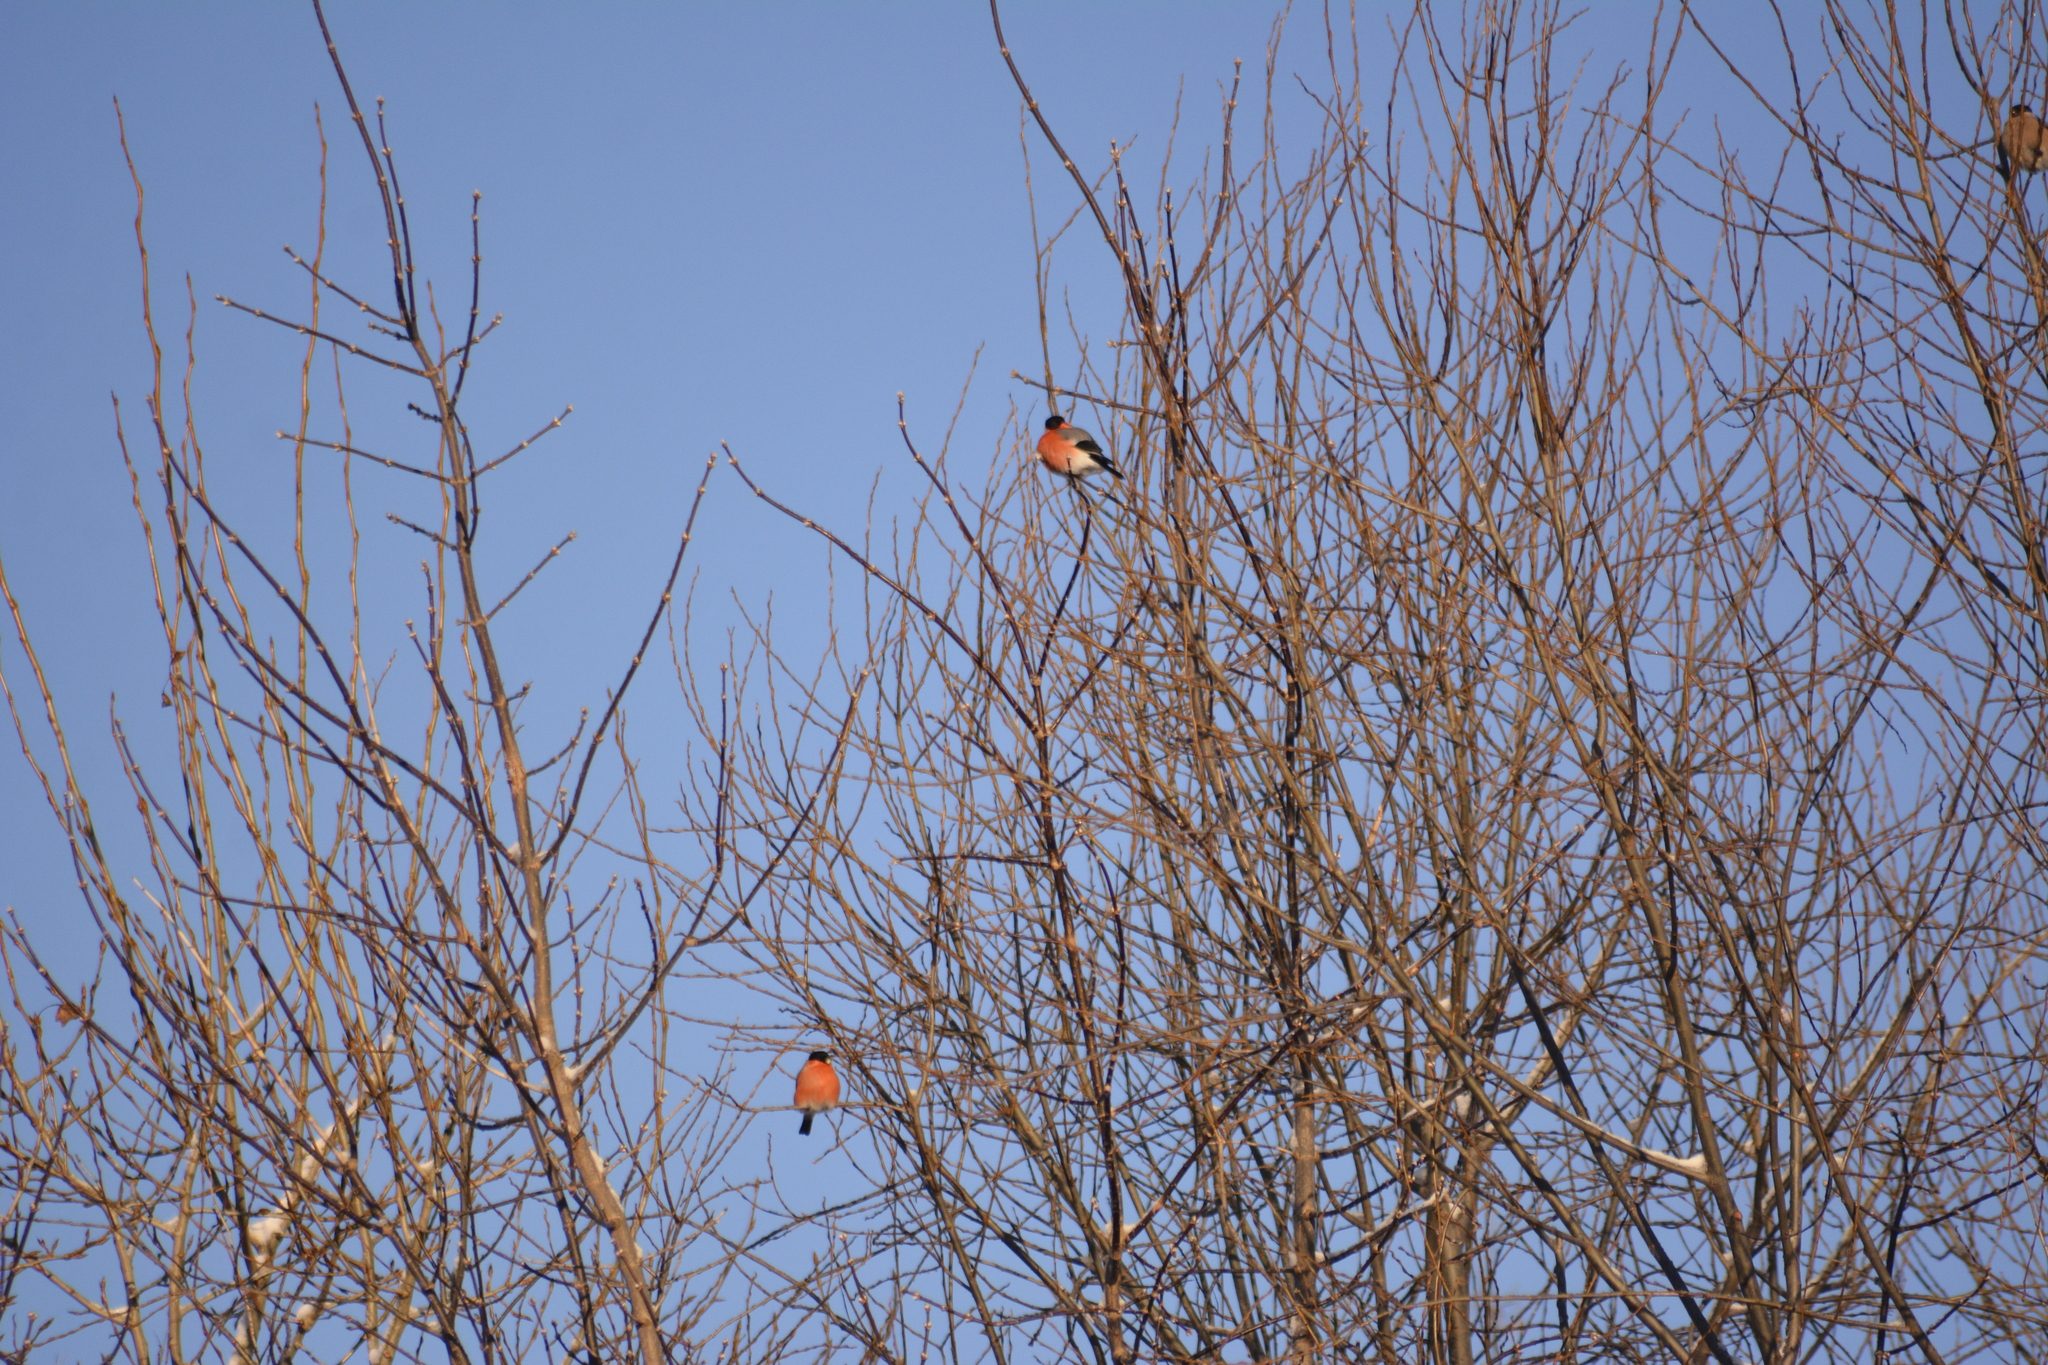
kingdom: Animalia
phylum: Chordata
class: Aves
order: Passeriformes
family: Fringillidae
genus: Pyrrhula
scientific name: Pyrrhula pyrrhula
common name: Eurasian bullfinch
